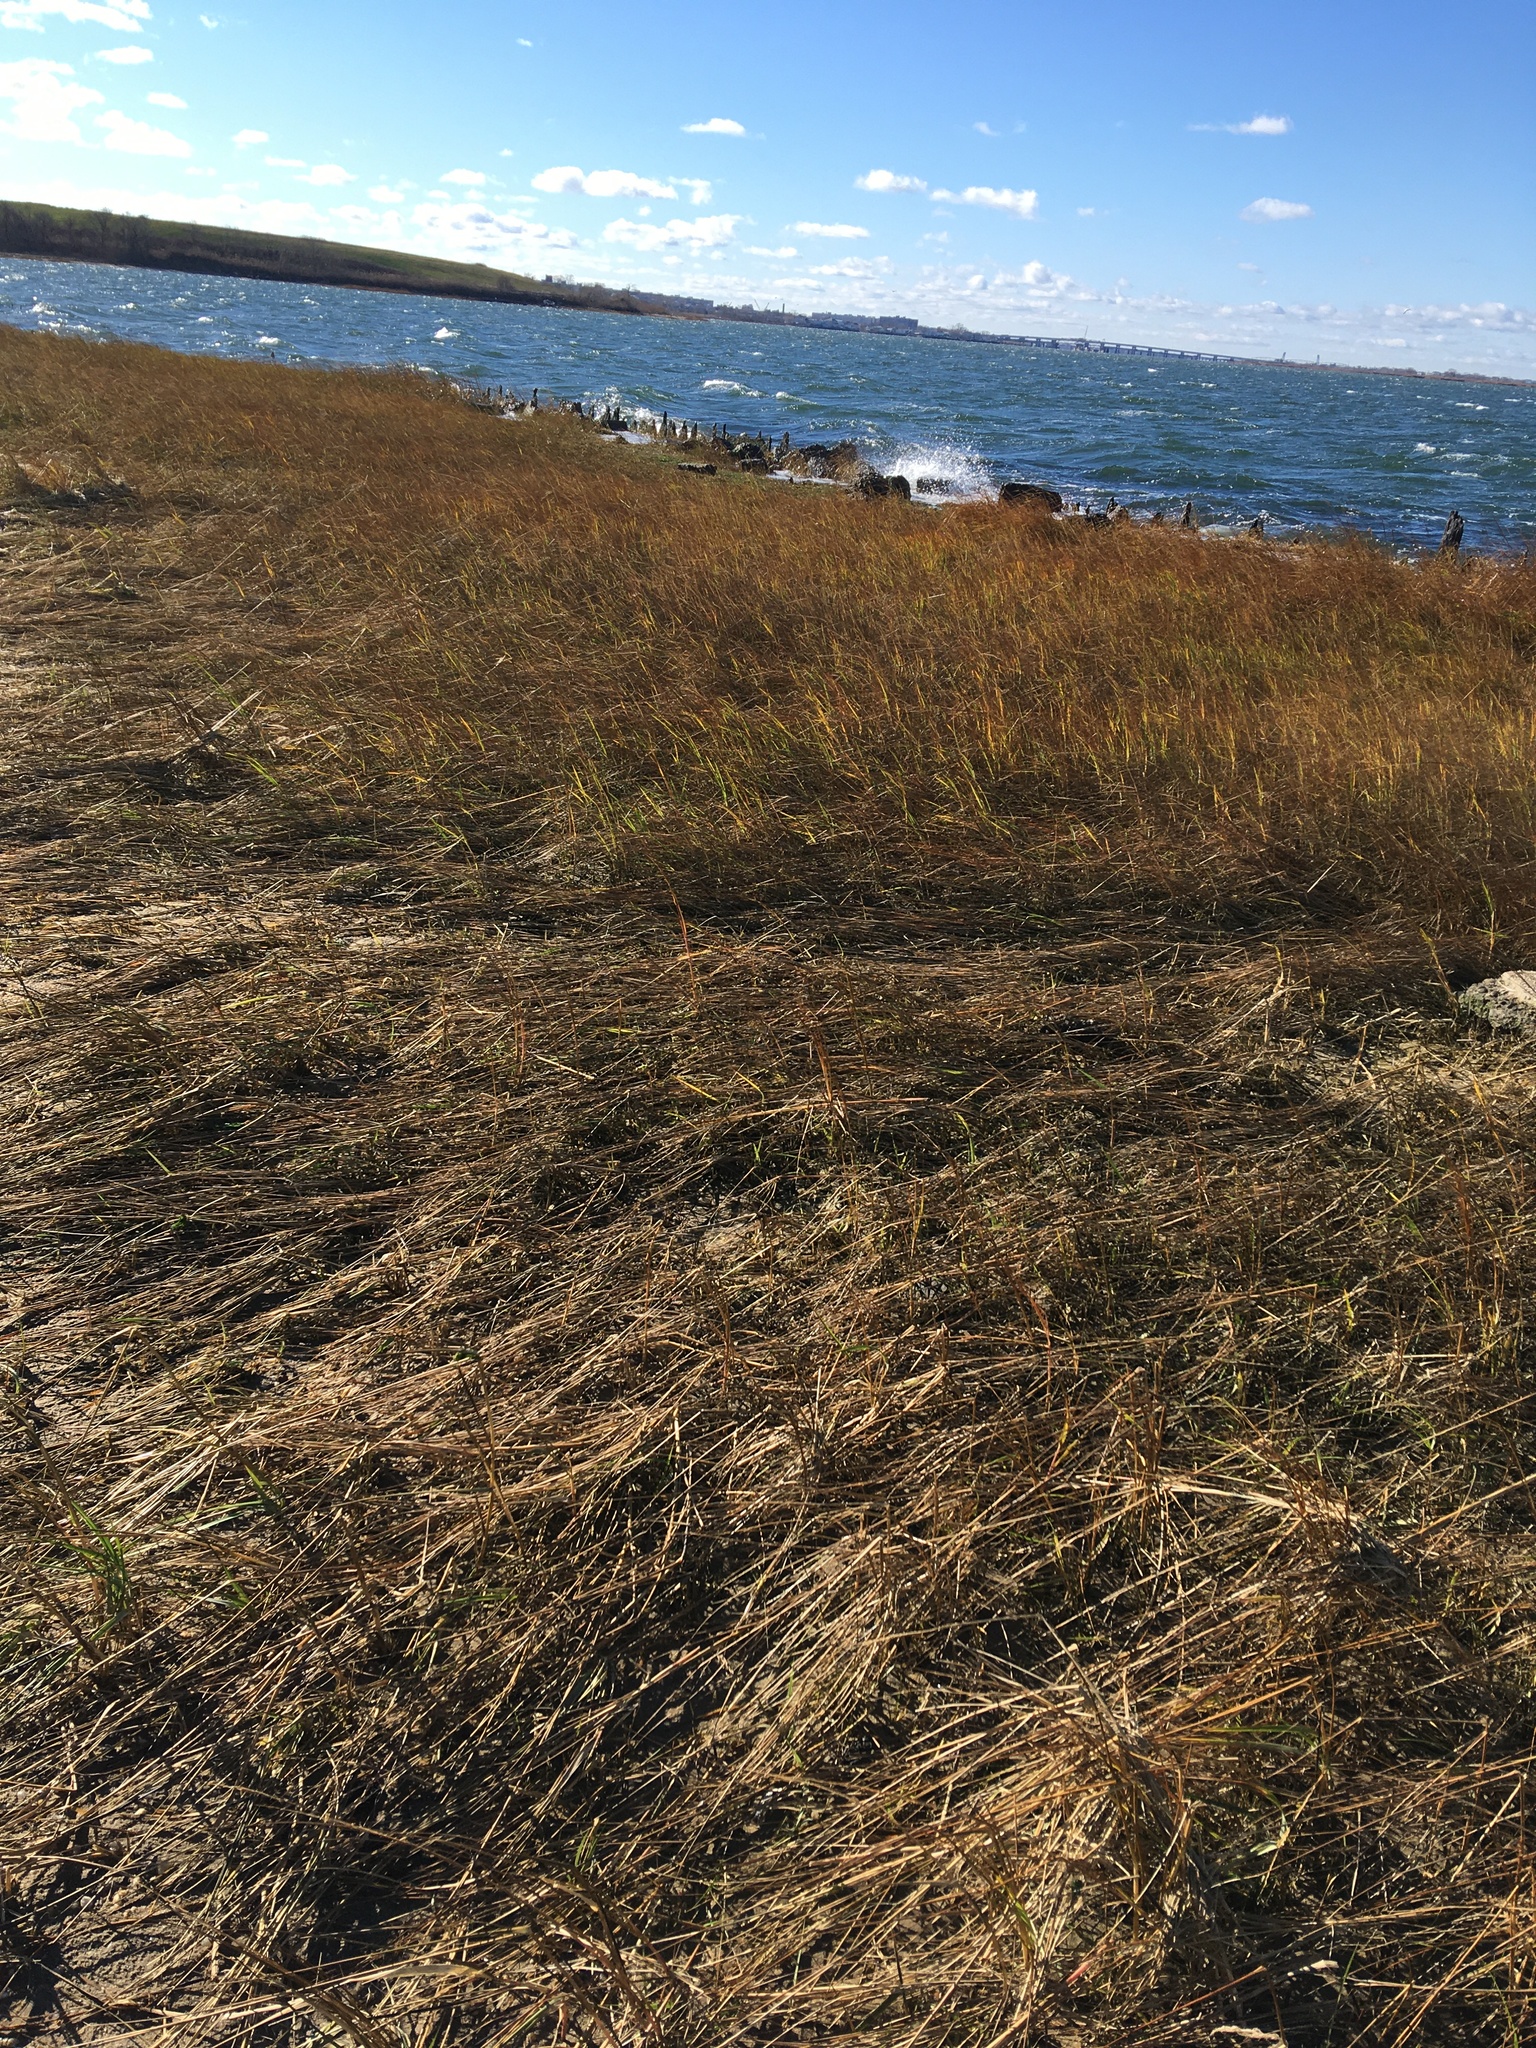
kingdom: Plantae
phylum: Tracheophyta
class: Liliopsida
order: Poales
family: Poaceae
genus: Sporobolus
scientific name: Sporobolus alterniflorus
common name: Atlantic cordgrass
